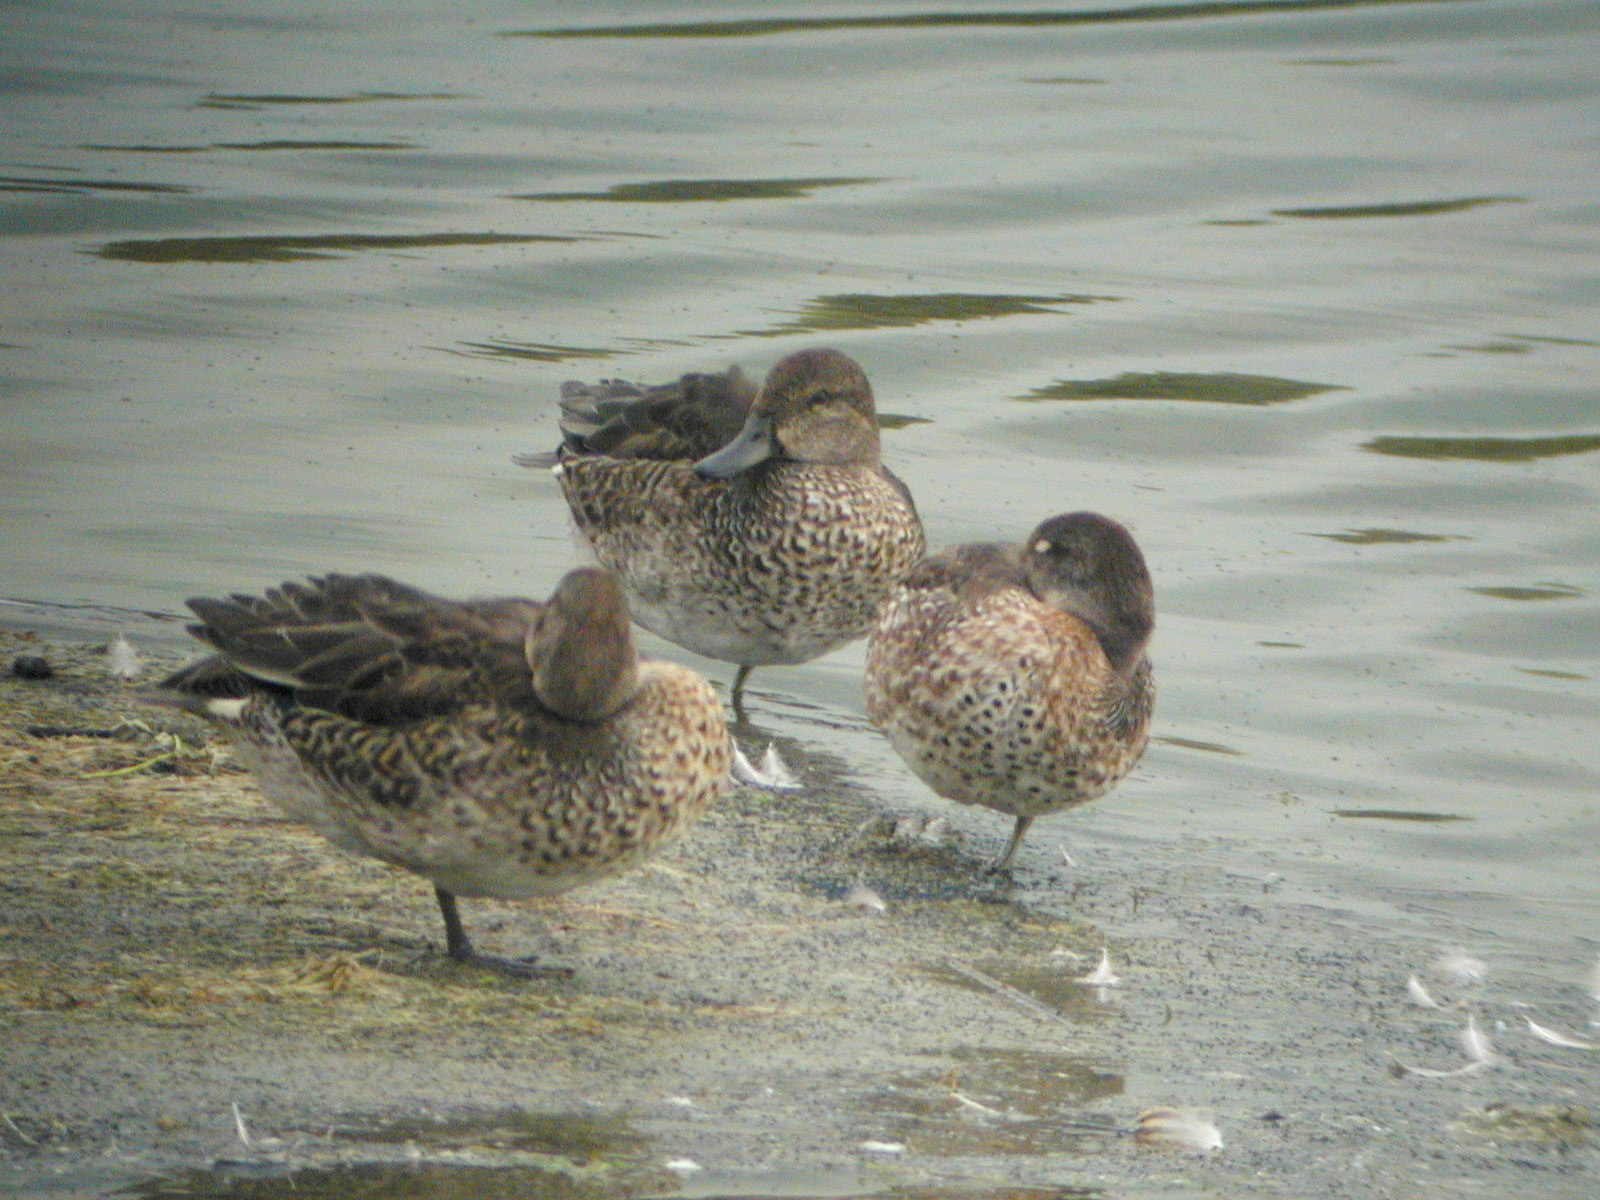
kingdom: Animalia
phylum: Chordata
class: Aves
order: Anseriformes
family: Anatidae
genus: Anas
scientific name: Anas crecca
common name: Eurasian teal
